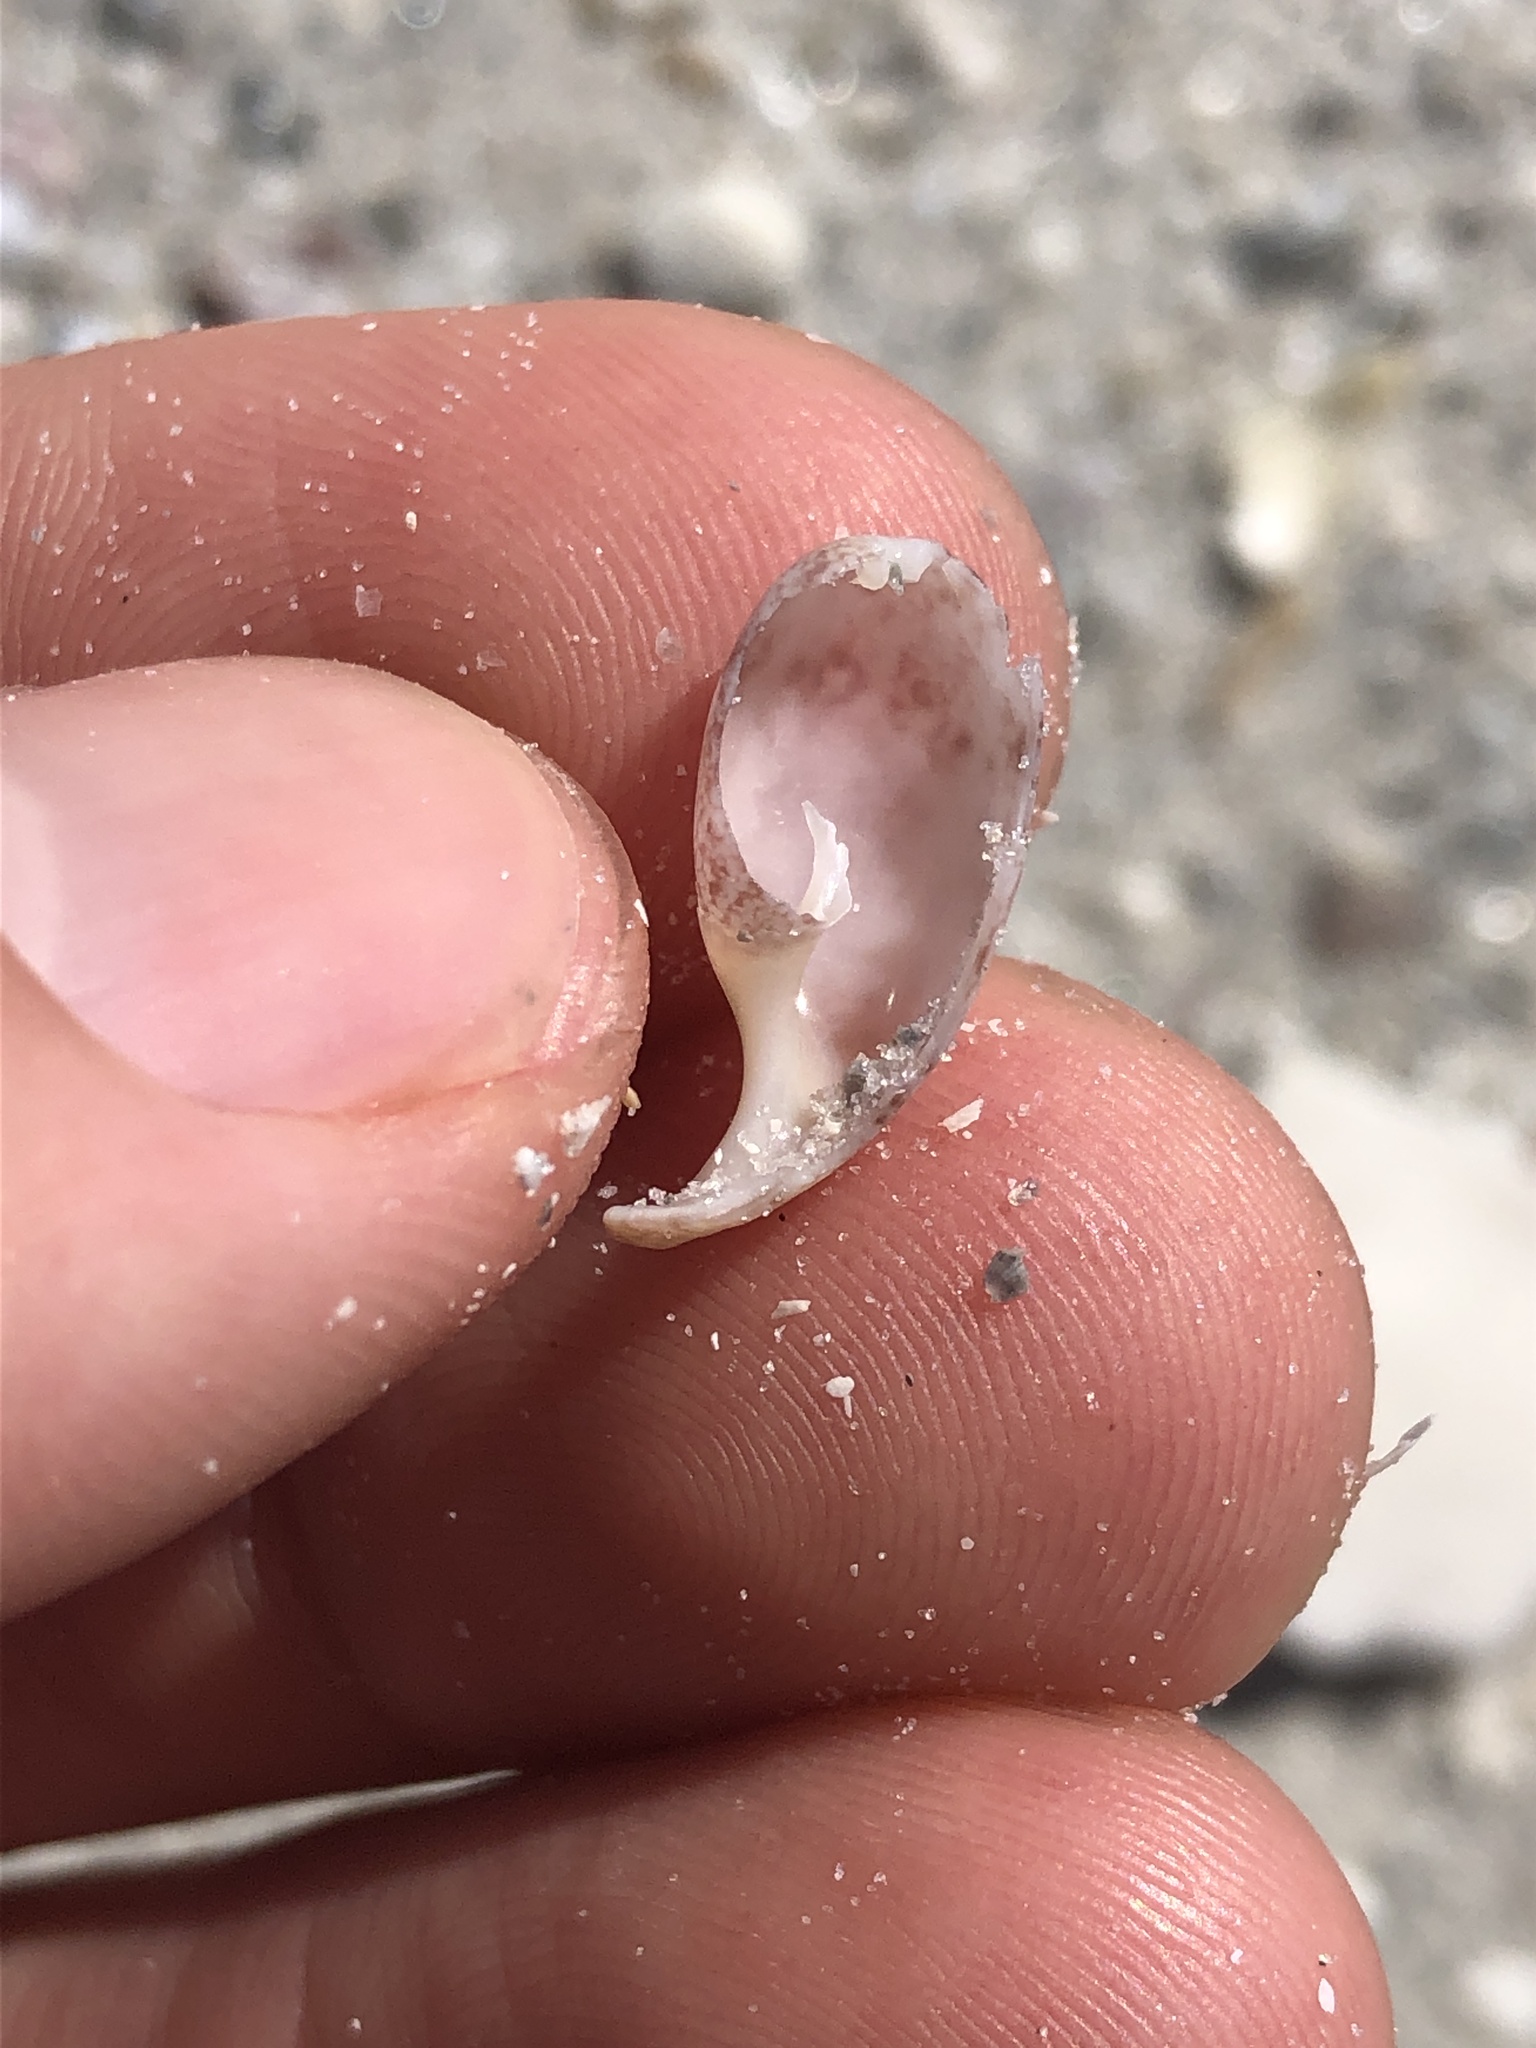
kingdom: Animalia
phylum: Mollusca
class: Gastropoda
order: Cephalaspidea
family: Bullidae
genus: Bulla
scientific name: Bulla occidentalis
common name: Common west-indian bubble
